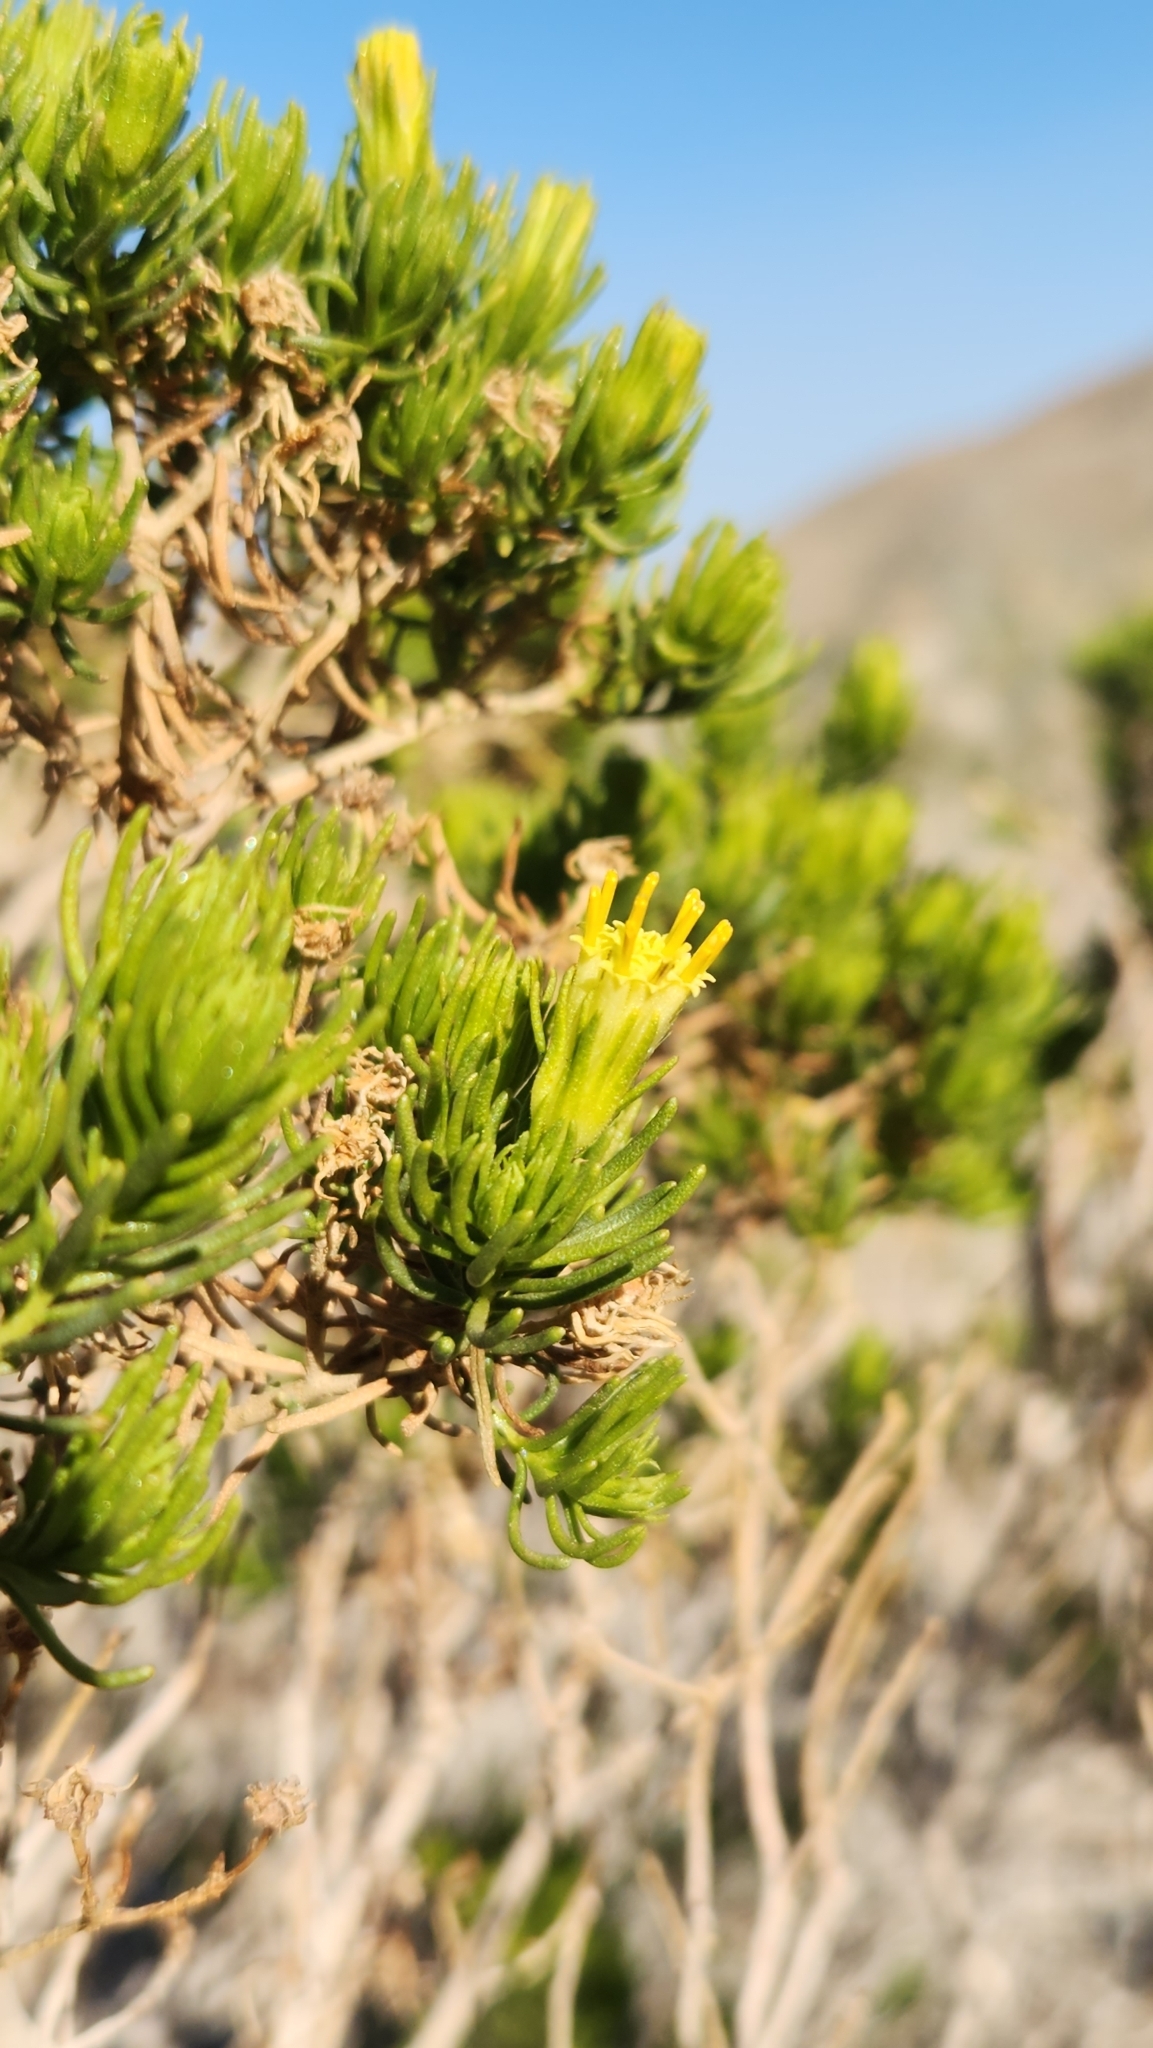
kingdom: Plantae
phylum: Tracheophyta
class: Magnoliopsida
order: Asterales
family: Asteraceae
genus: Peucephyllum
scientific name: Peucephyllum schottii
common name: Pygmy-cedar
